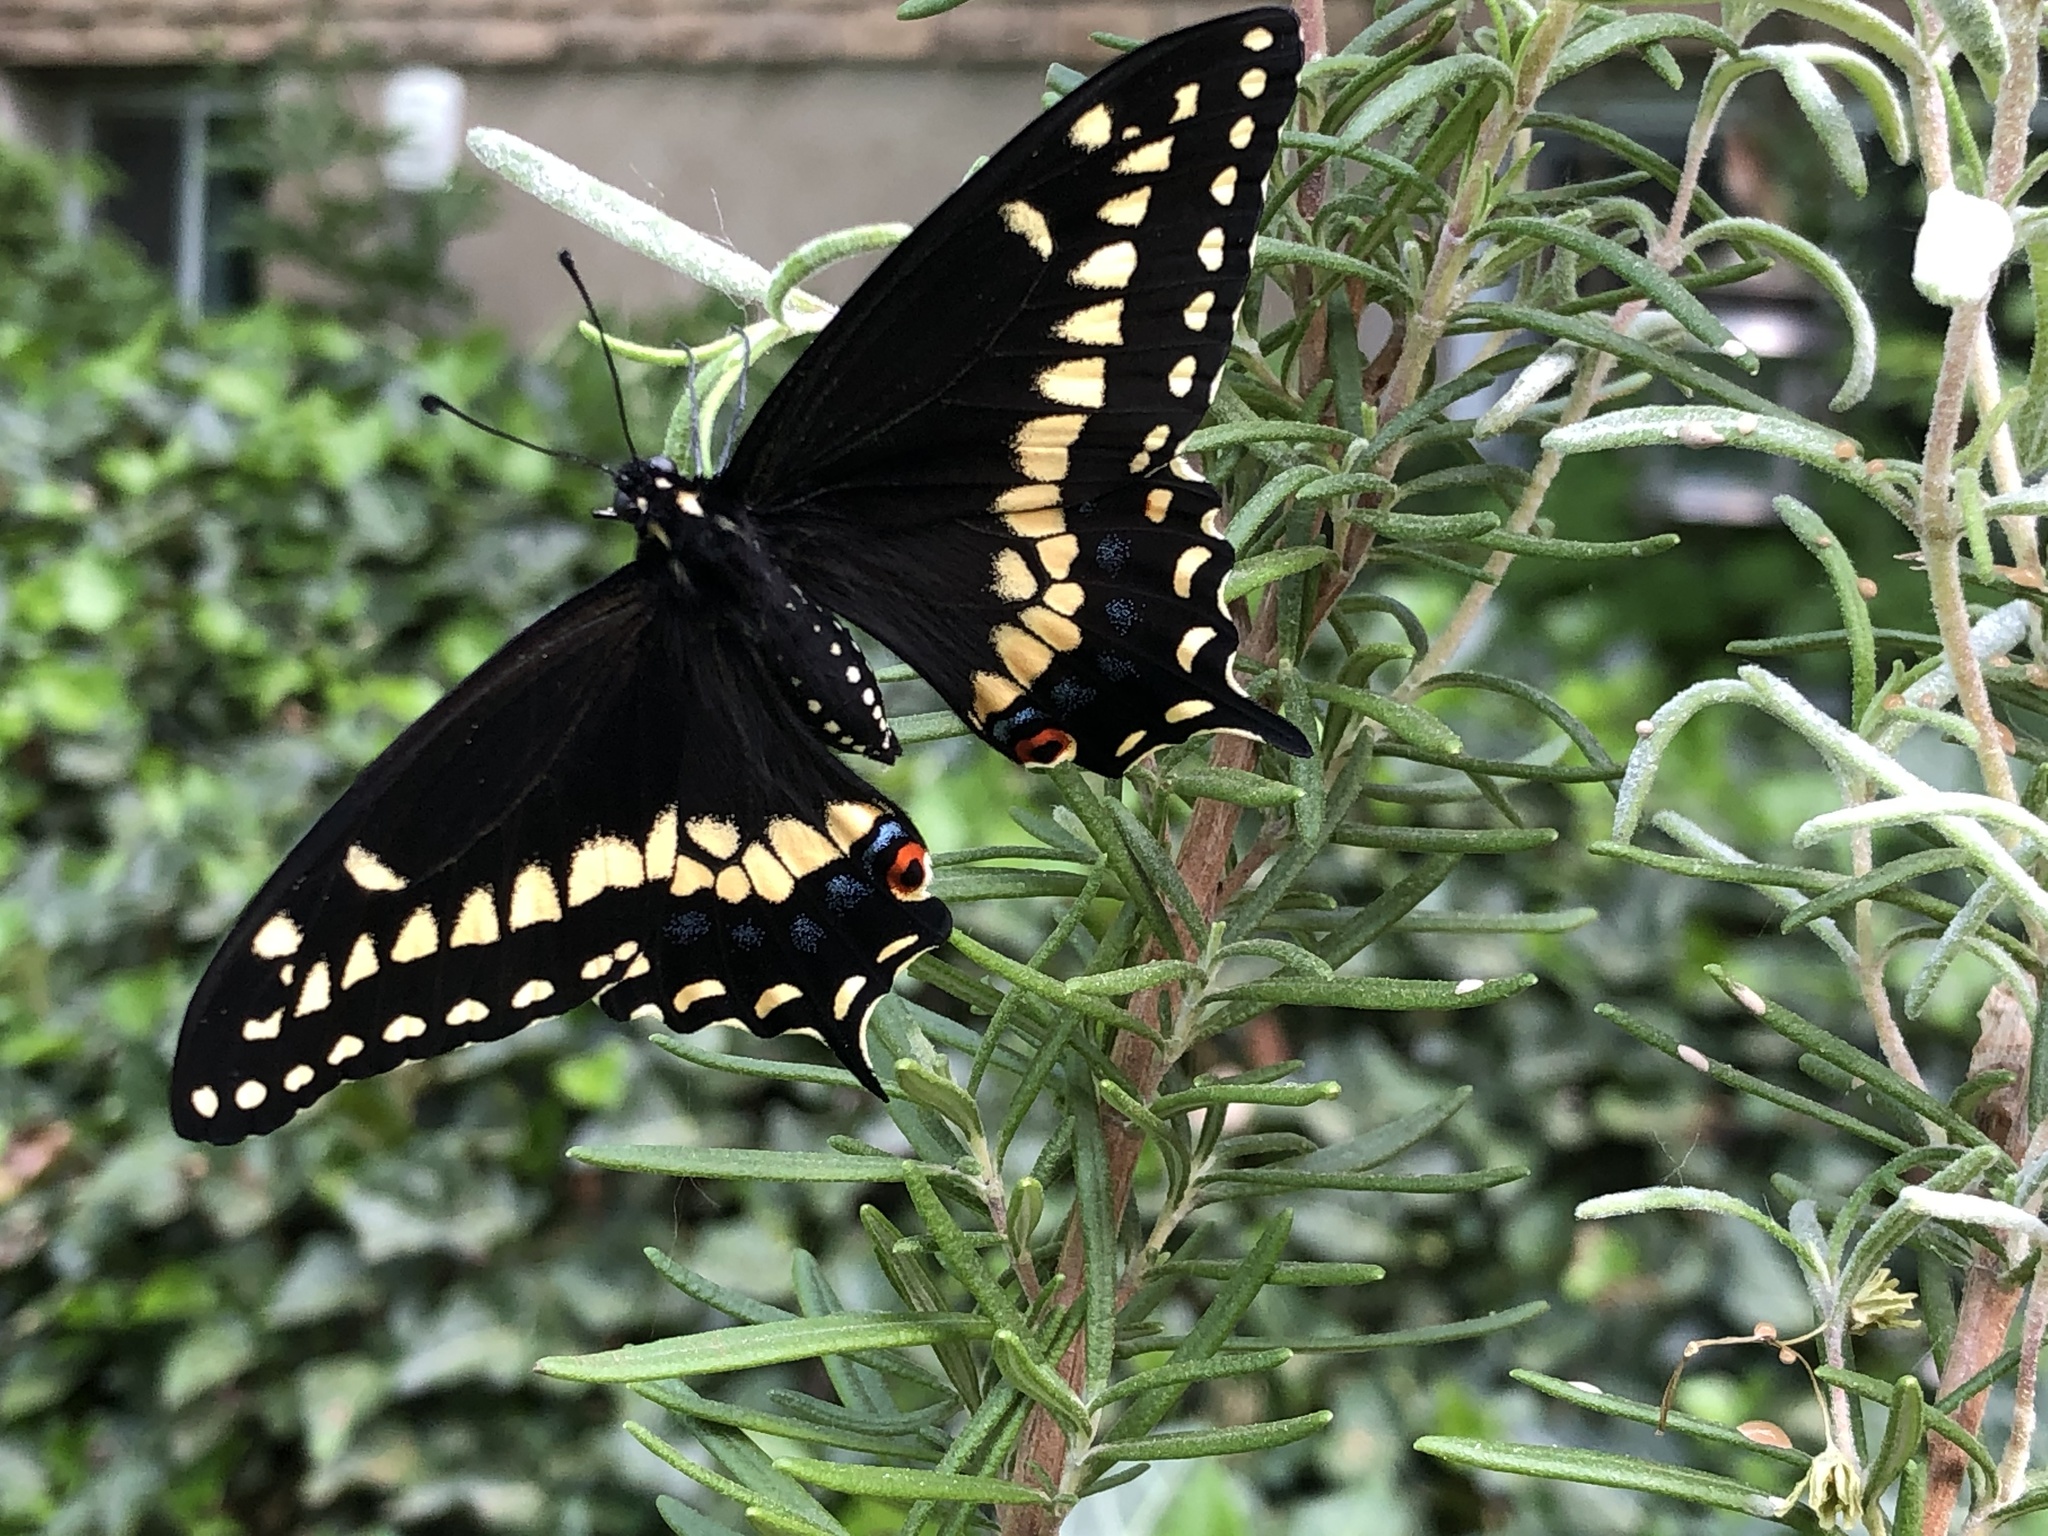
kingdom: Animalia
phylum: Arthropoda
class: Insecta
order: Lepidoptera
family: Papilionidae
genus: Papilio
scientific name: Papilio polyxenes
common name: Black swallowtail
